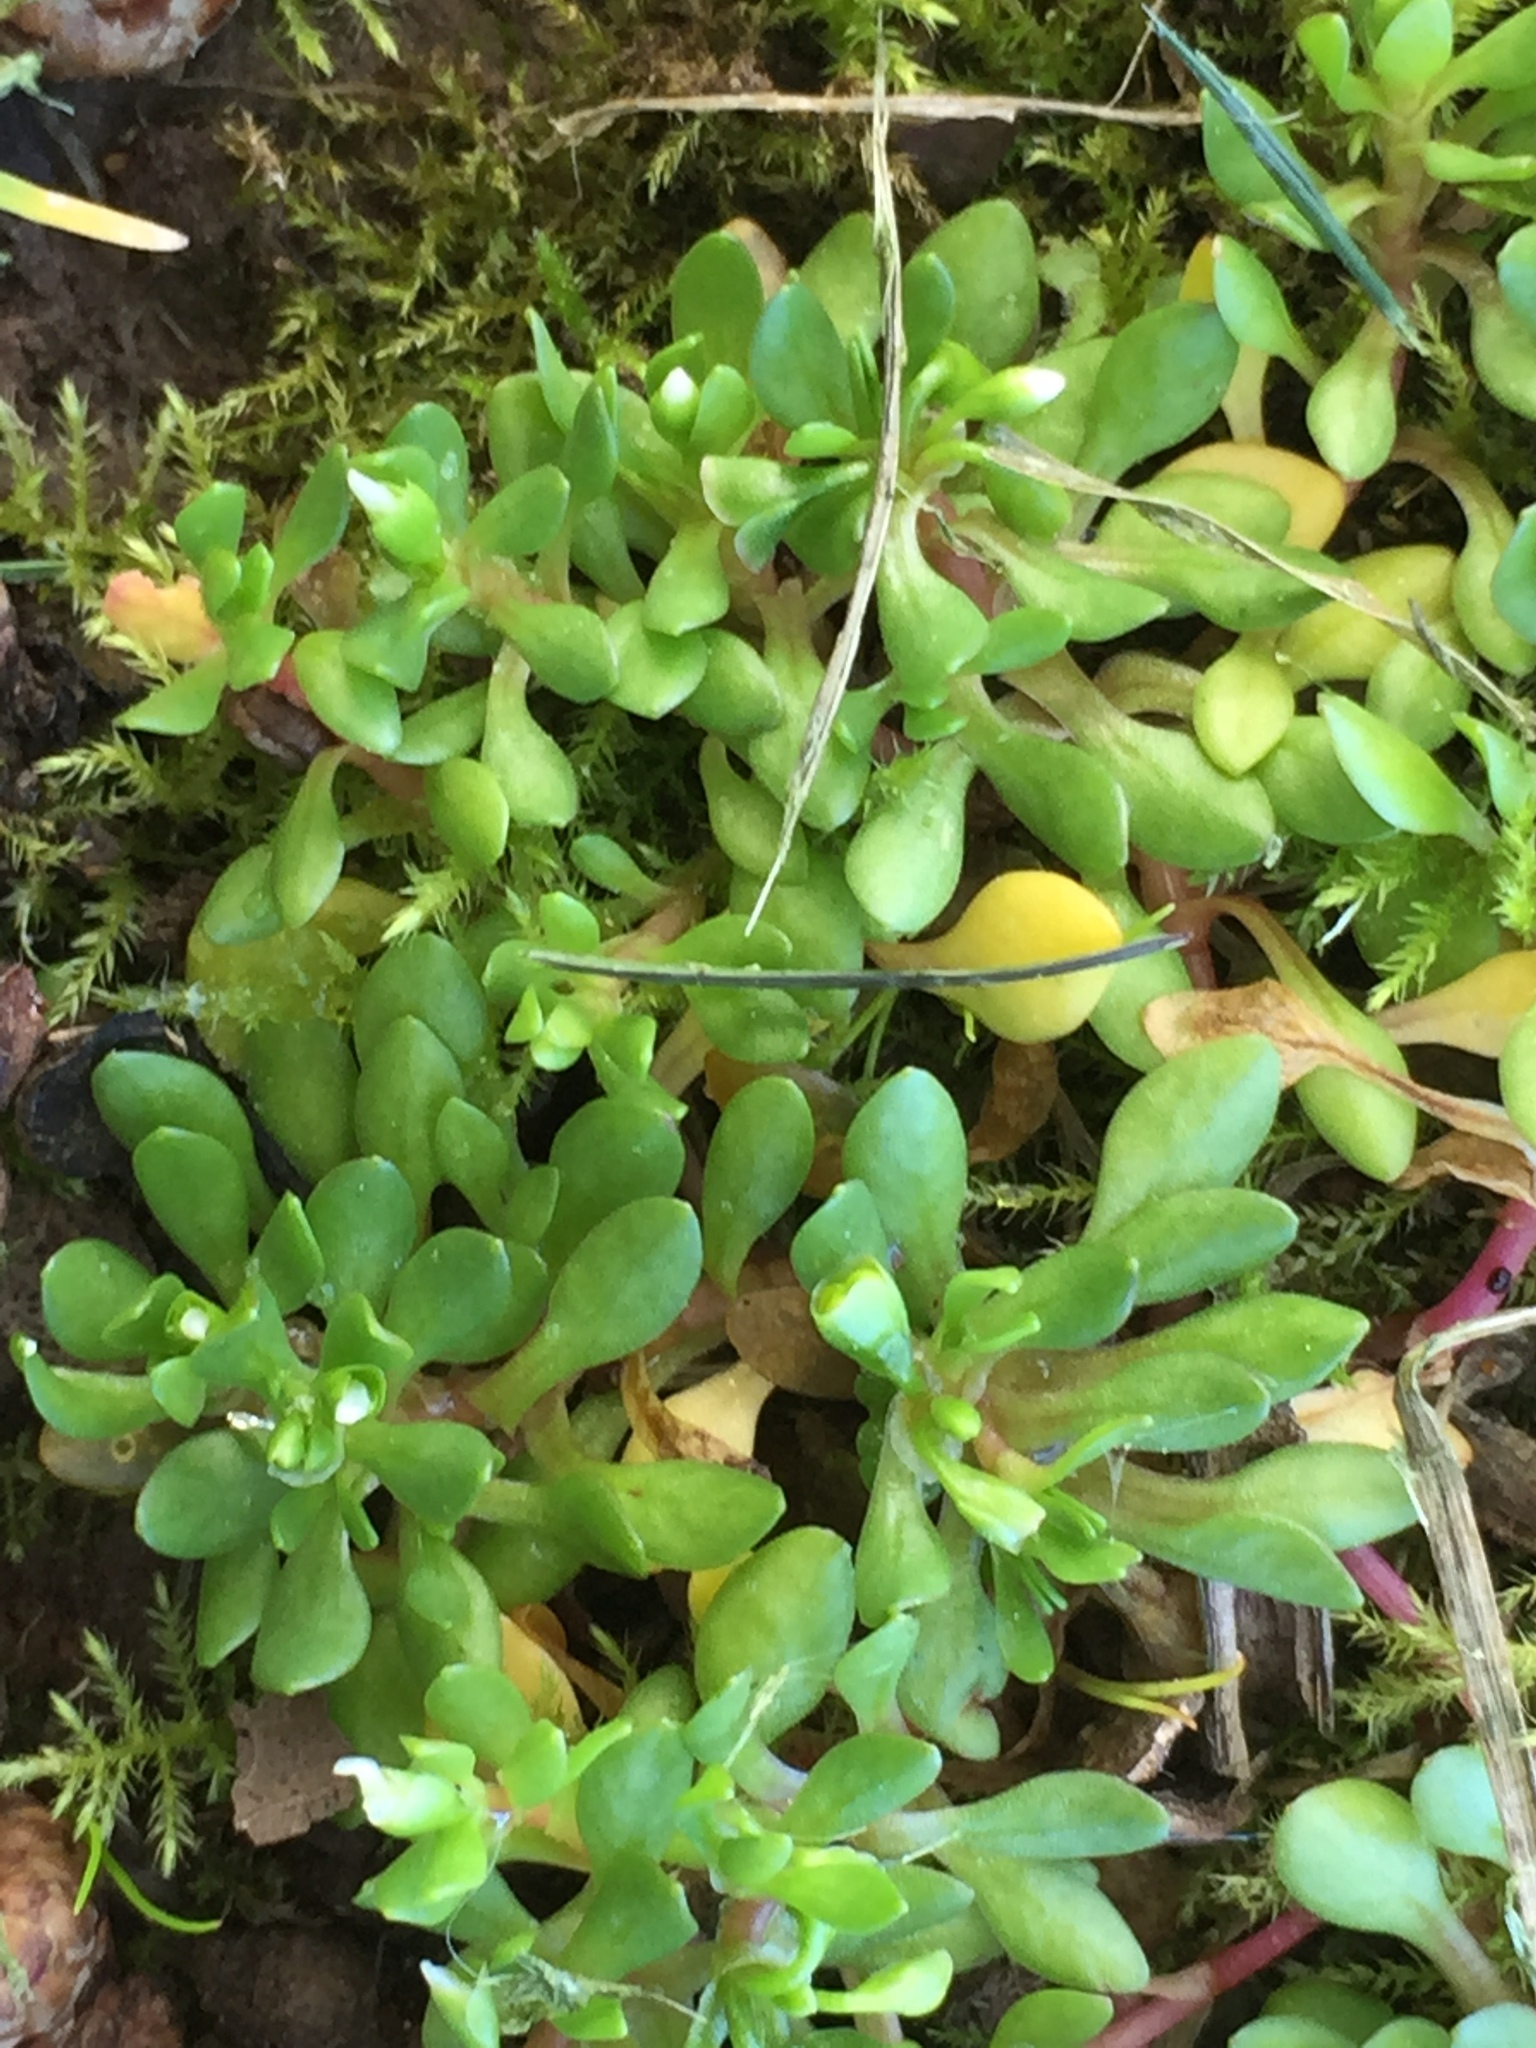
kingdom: Plantae
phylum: Tracheophyta
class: Magnoliopsida
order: Caryophyllales
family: Montiaceae
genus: Montia
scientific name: Montia
